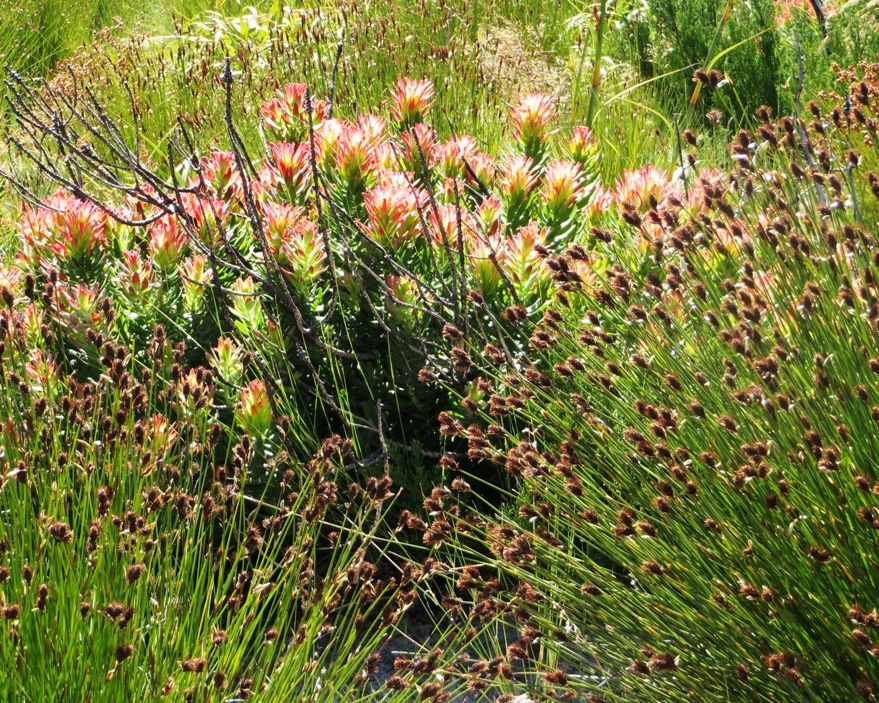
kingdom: Plantae
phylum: Tracheophyta
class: Magnoliopsida
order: Proteales
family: Proteaceae
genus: Mimetes
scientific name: Mimetes cucullatus
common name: Common pagoda
